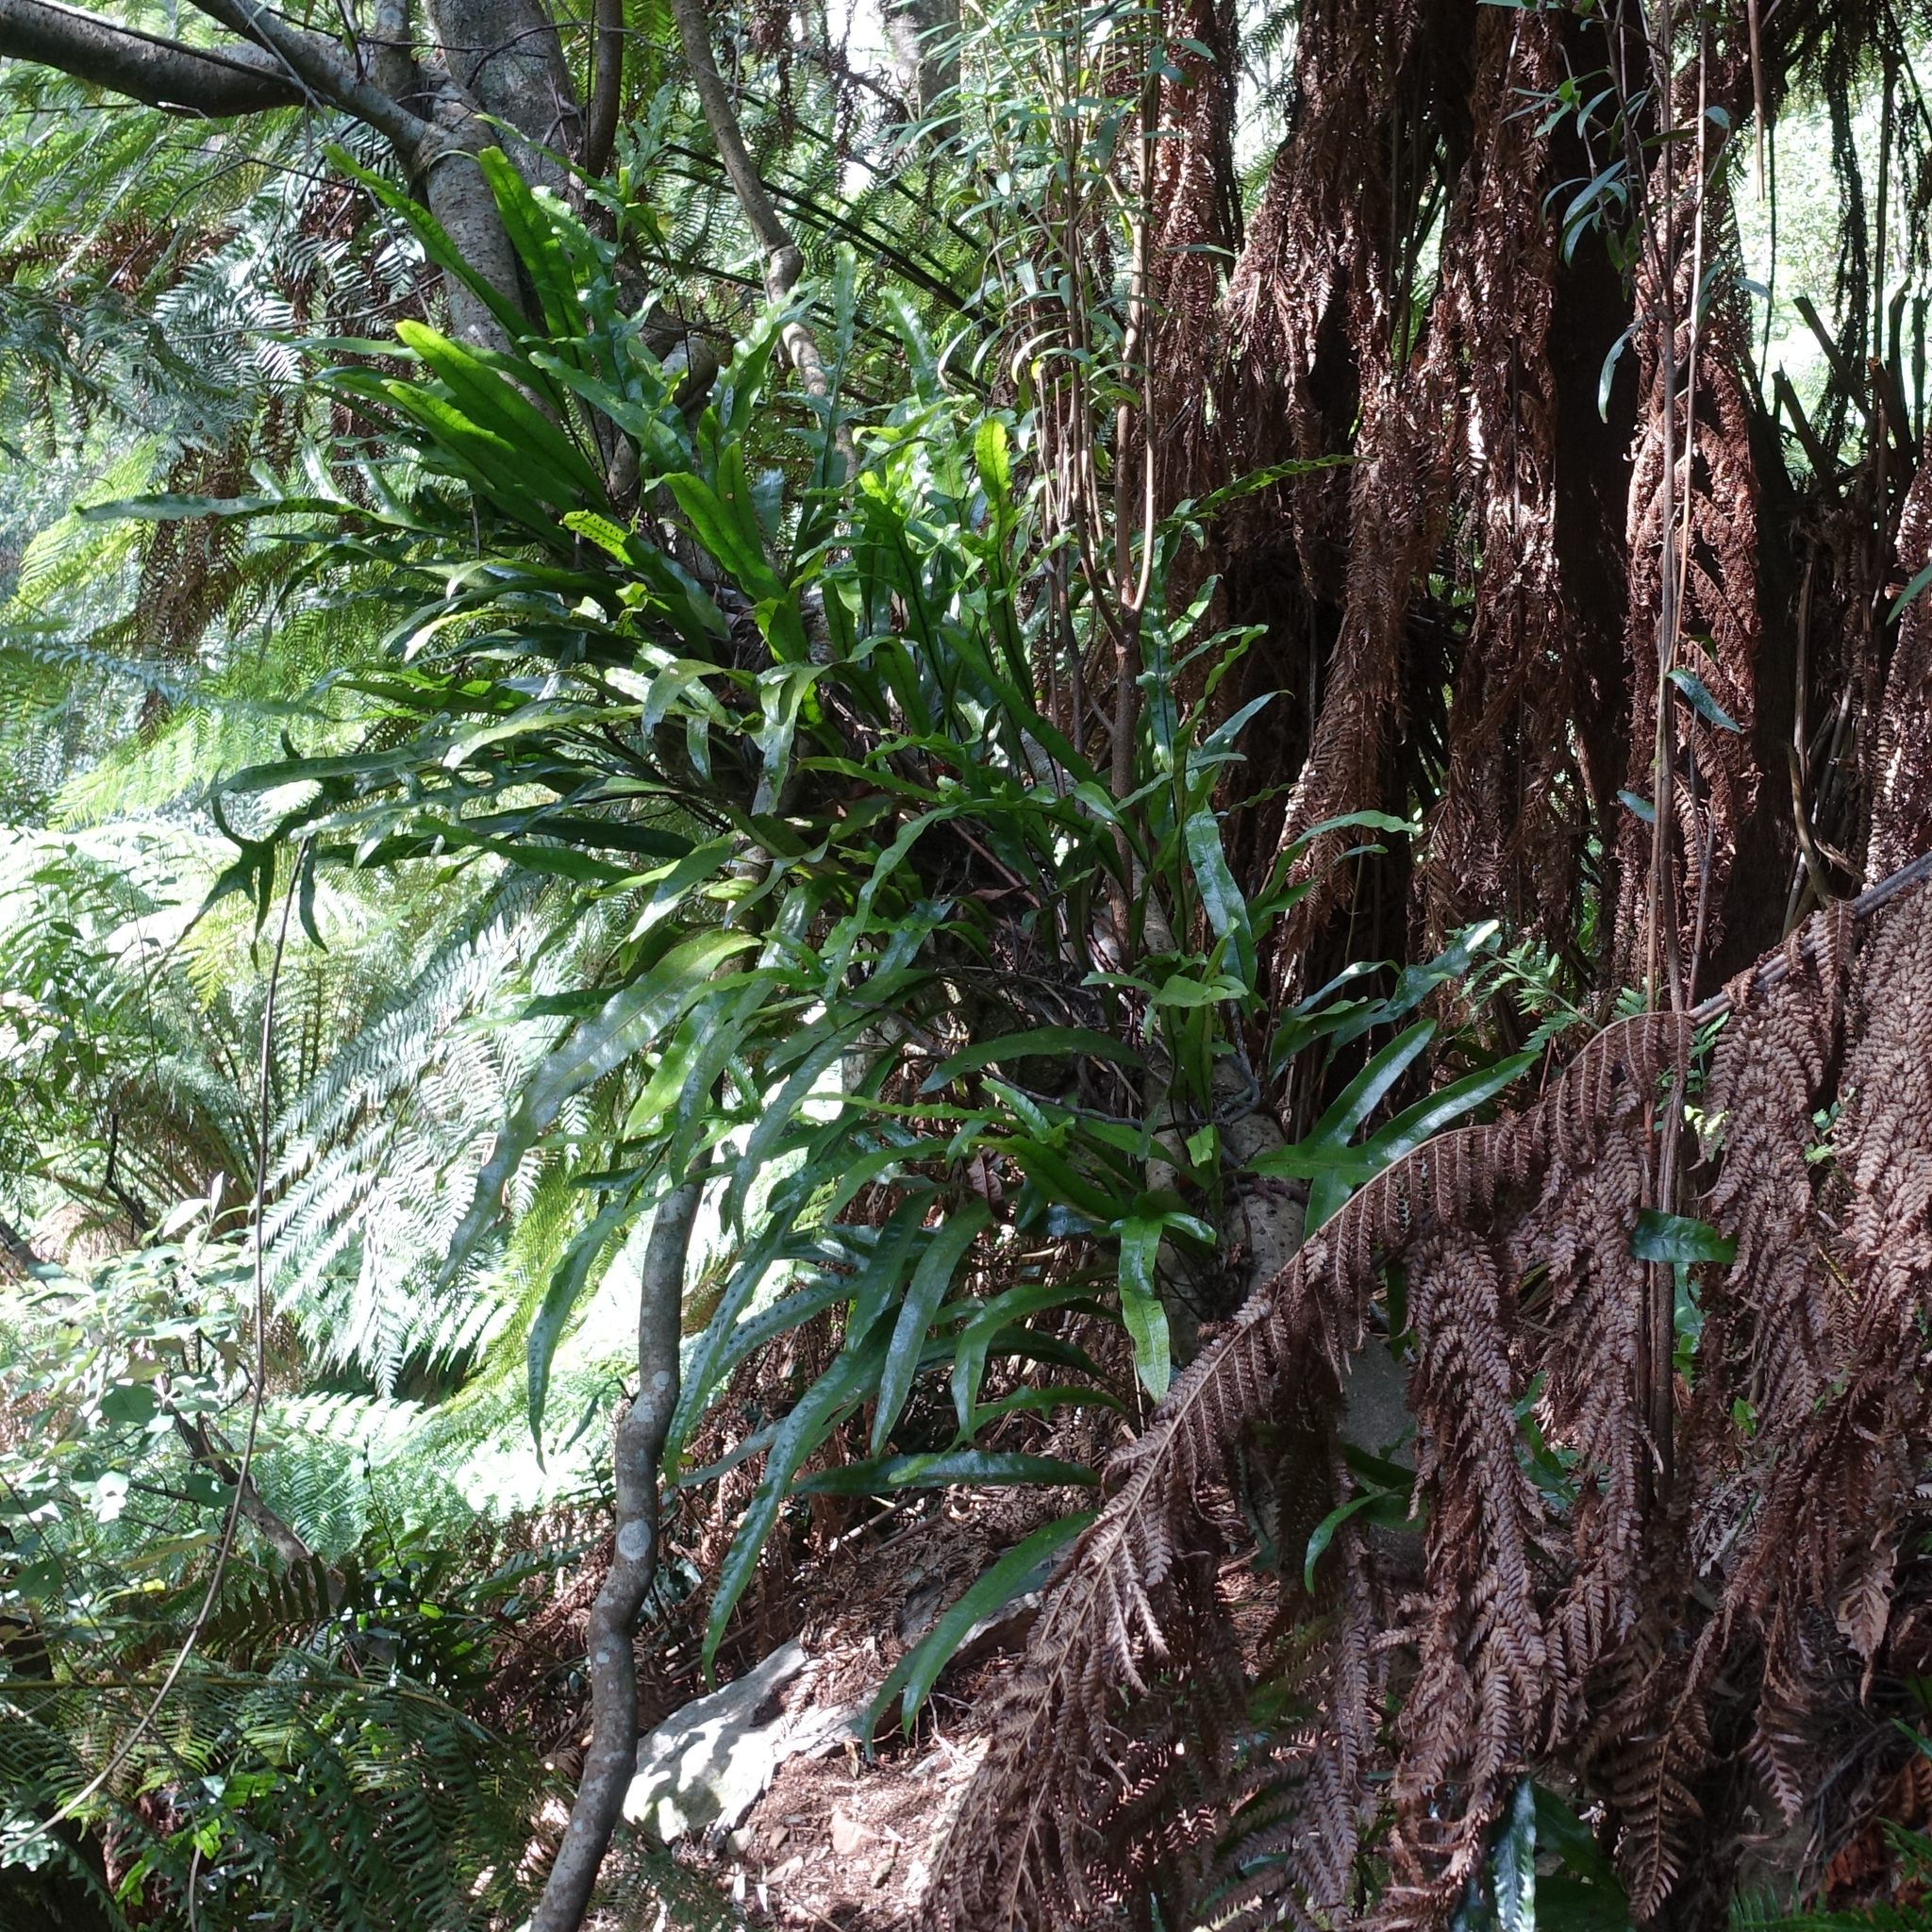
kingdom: Plantae
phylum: Tracheophyta
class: Polypodiopsida
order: Polypodiales
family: Polypodiaceae
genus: Lecanopteris
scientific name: Lecanopteris pustulata
